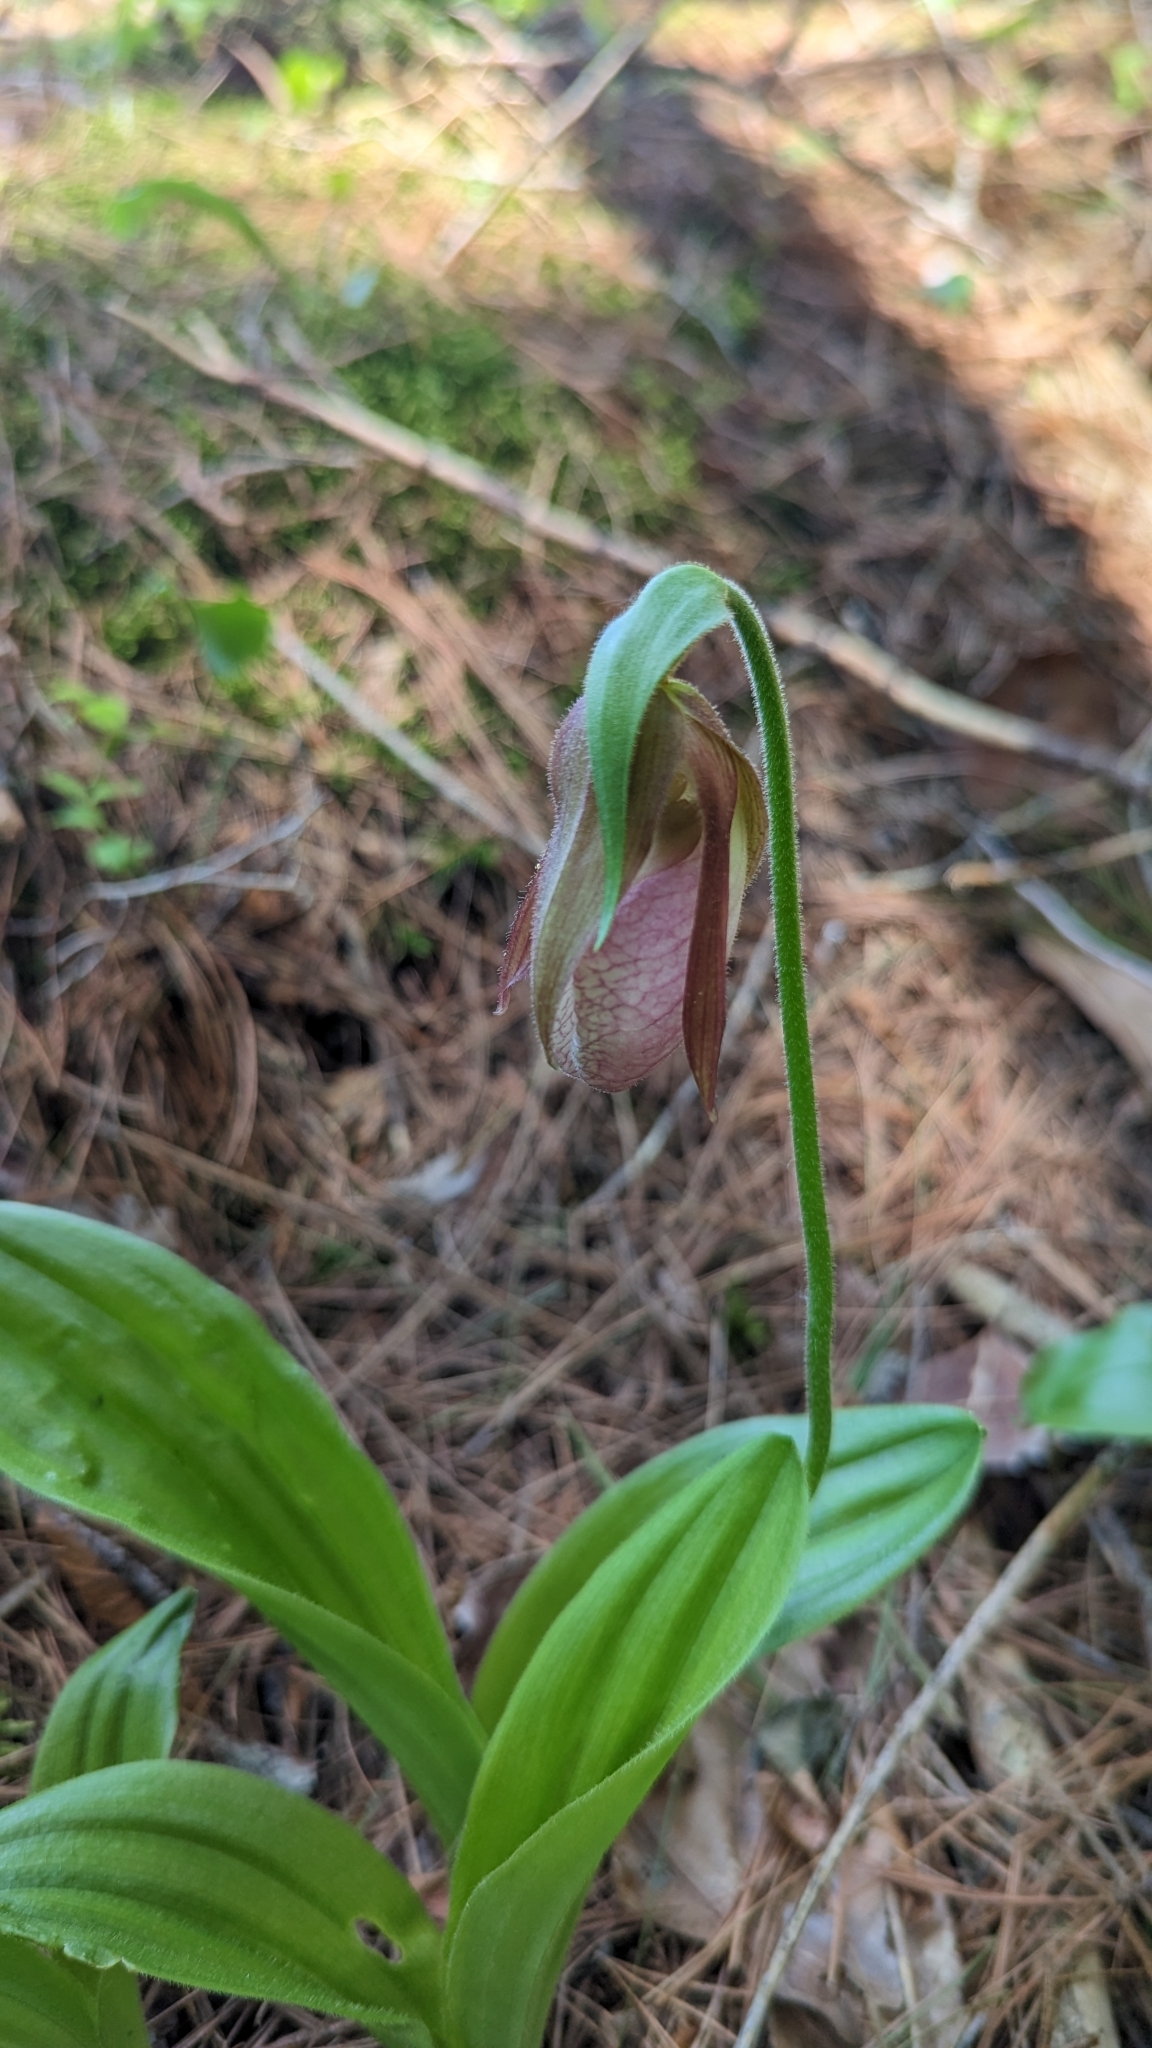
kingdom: Plantae
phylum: Tracheophyta
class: Liliopsida
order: Asparagales
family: Orchidaceae
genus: Cypripedium
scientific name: Cypripedium acaule
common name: Pink lady's-slipper
